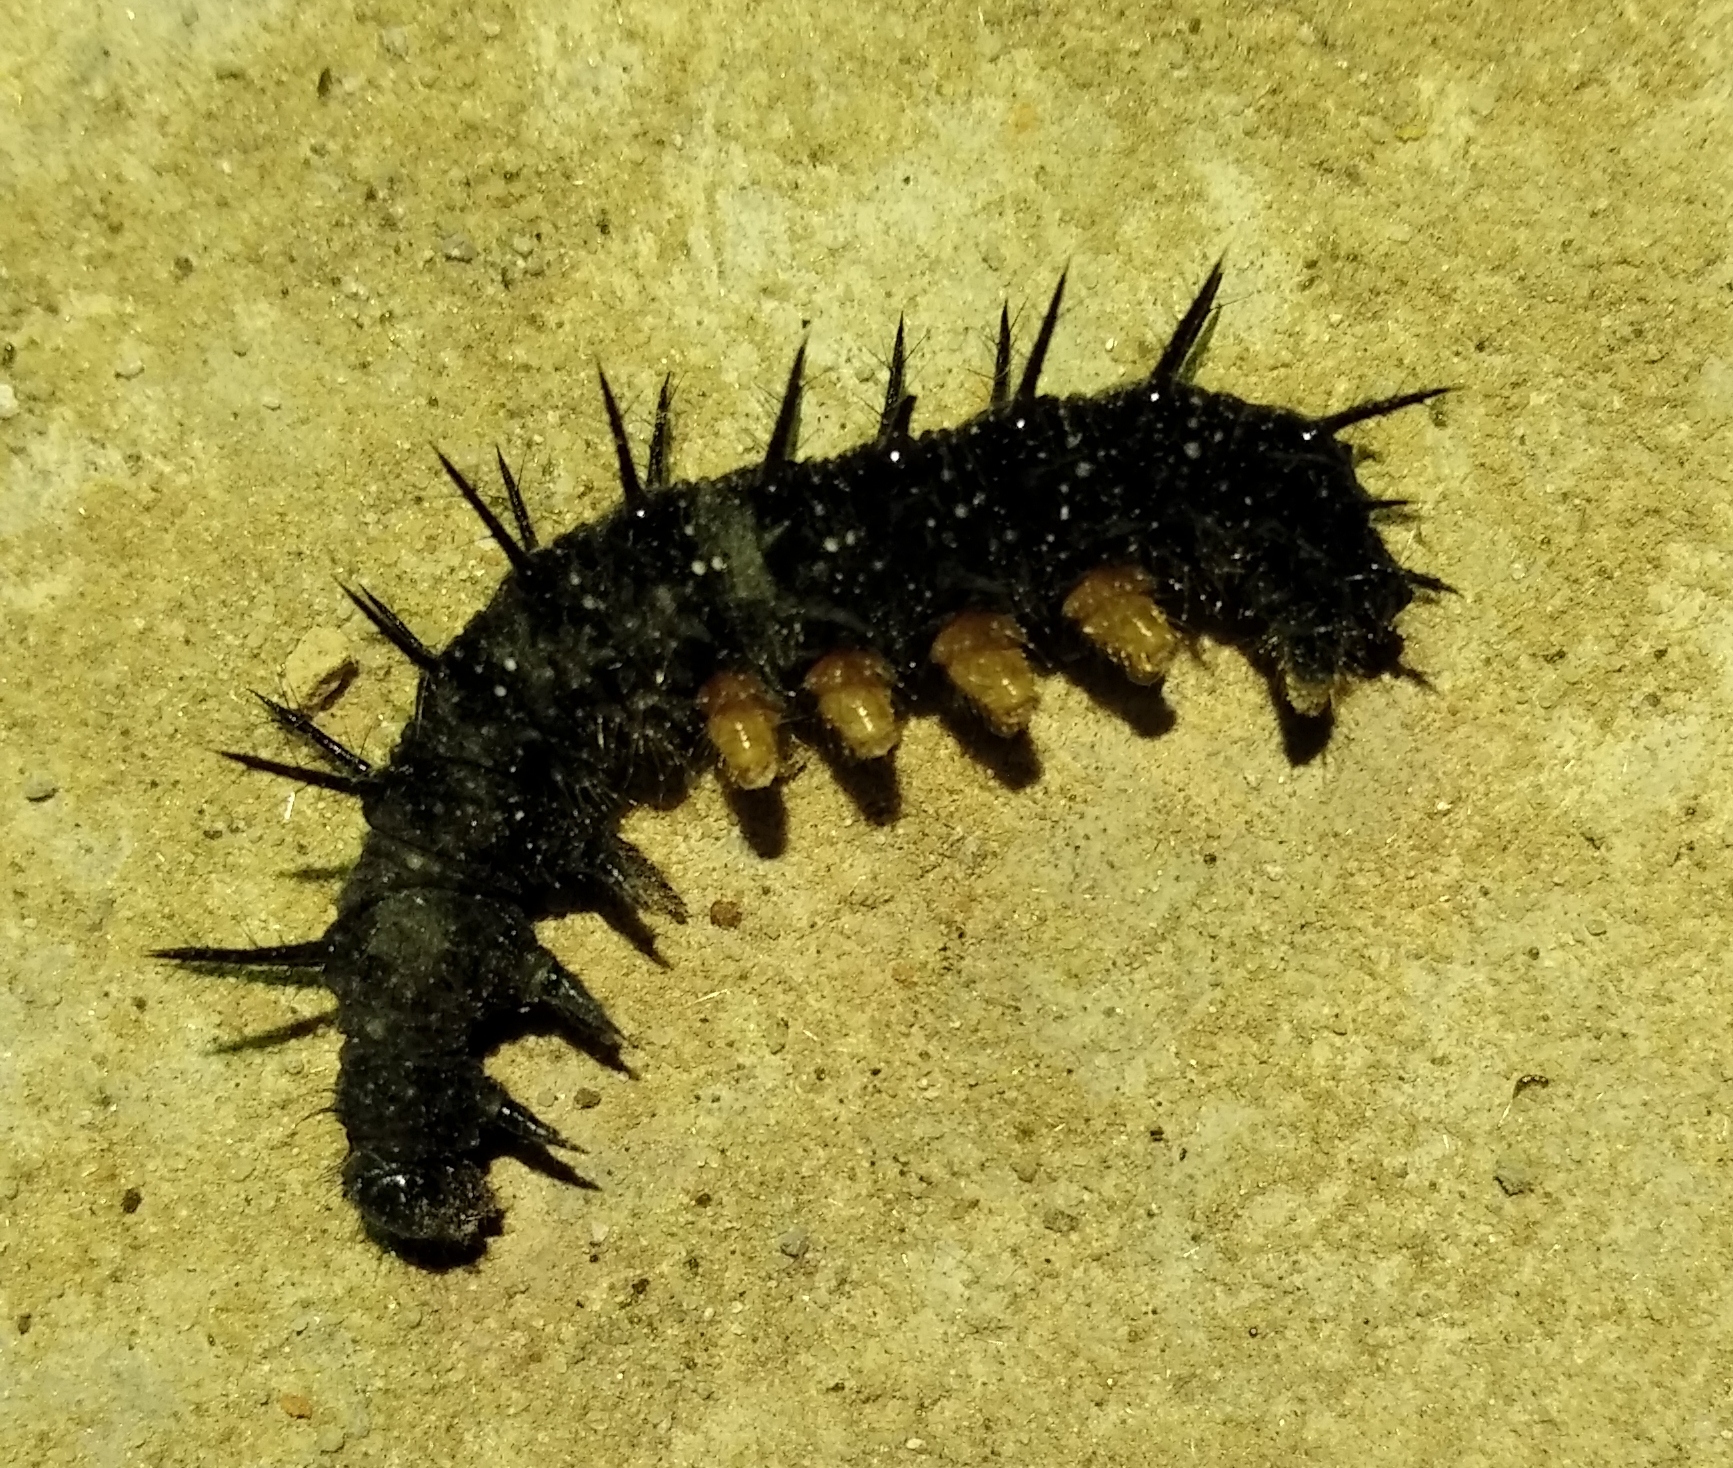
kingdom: Animalia
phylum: Arthropoda
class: Insecta
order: Lepidoptera
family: Nymphalidae
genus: Aglais
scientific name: Aglais io
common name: Peacock
